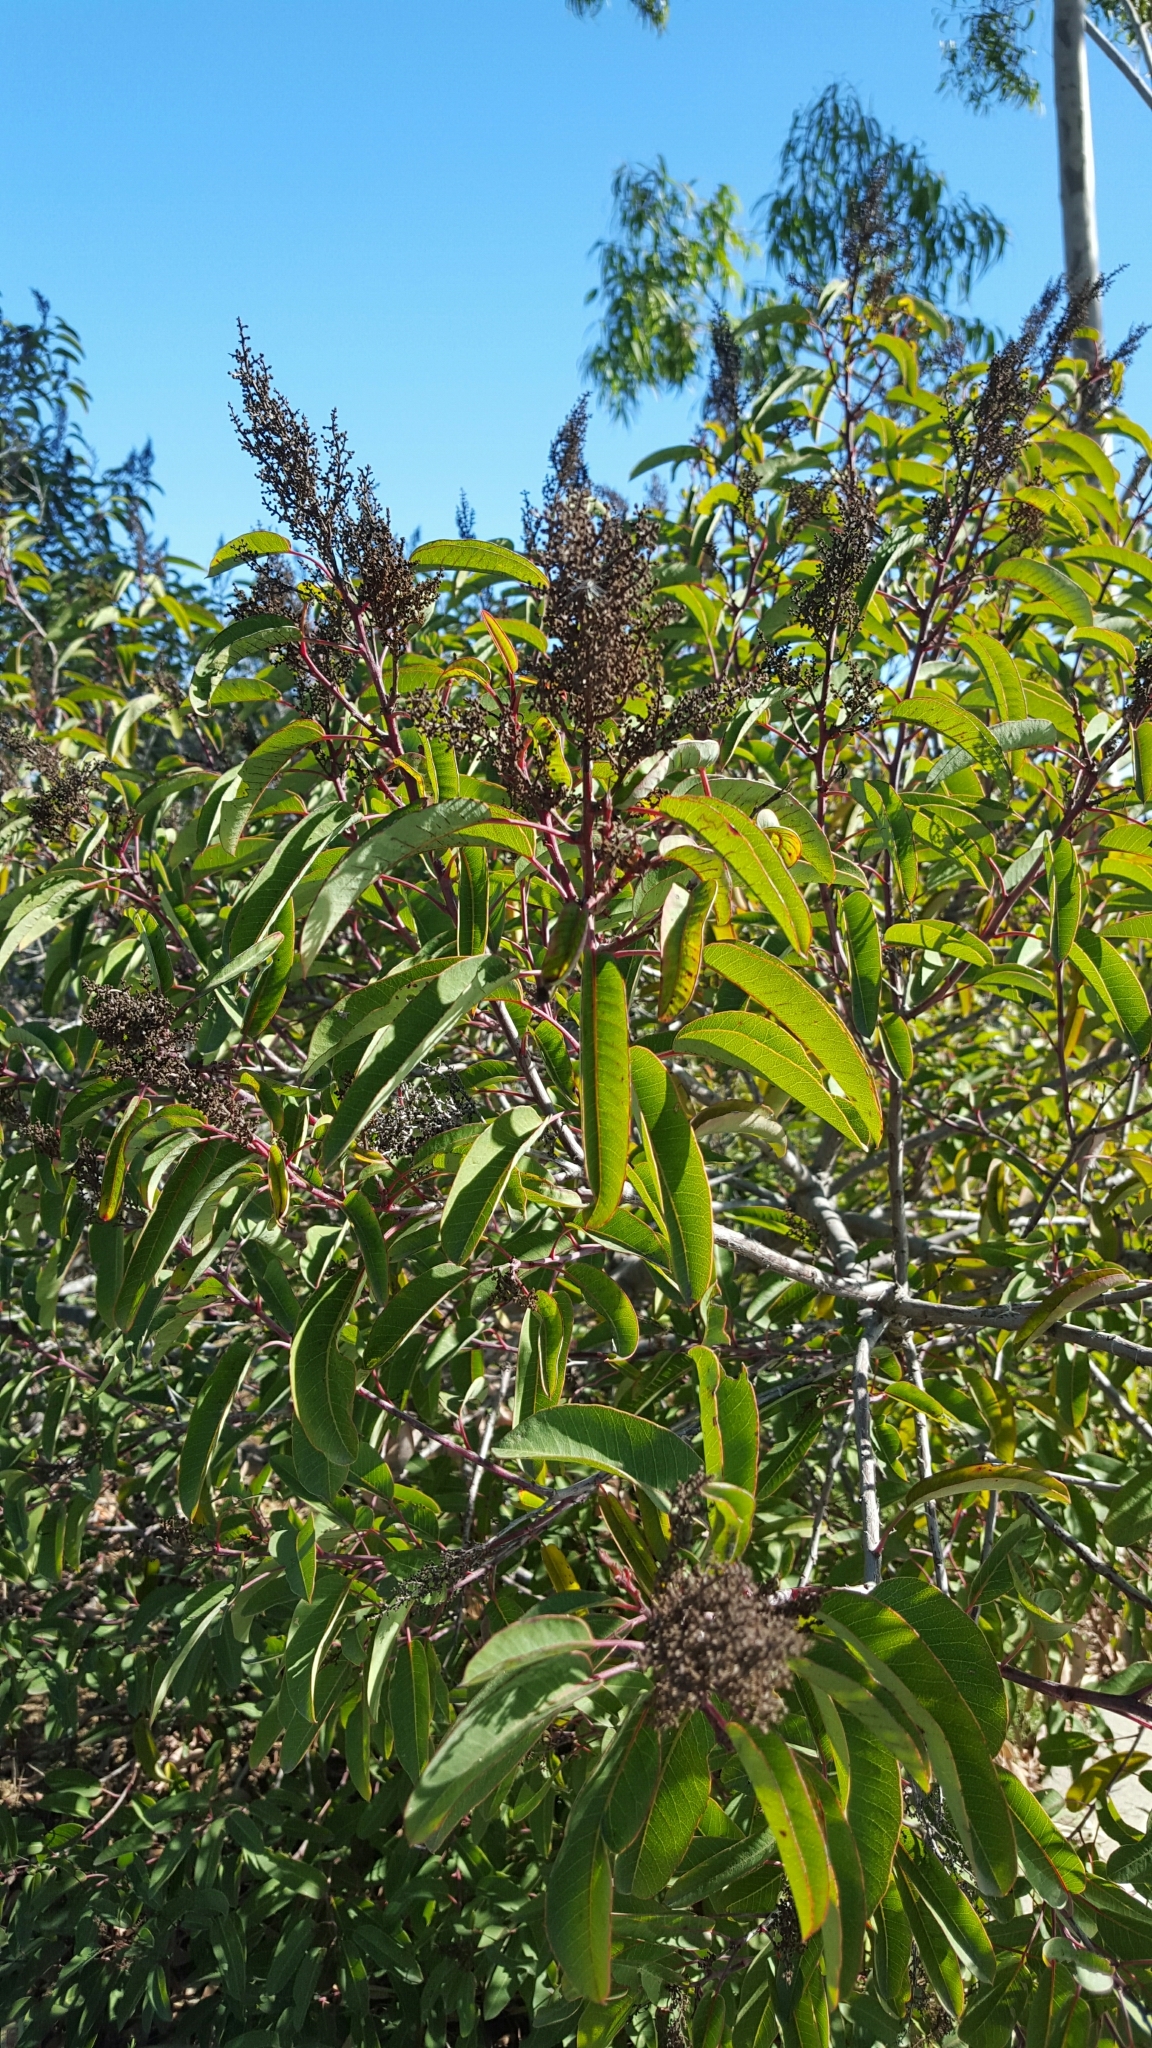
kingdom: Plantae
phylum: Tracheophyta
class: Magnoliopsida
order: Sapindales
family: Anacardiaceae
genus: Malosma
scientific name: Malosma laurina
